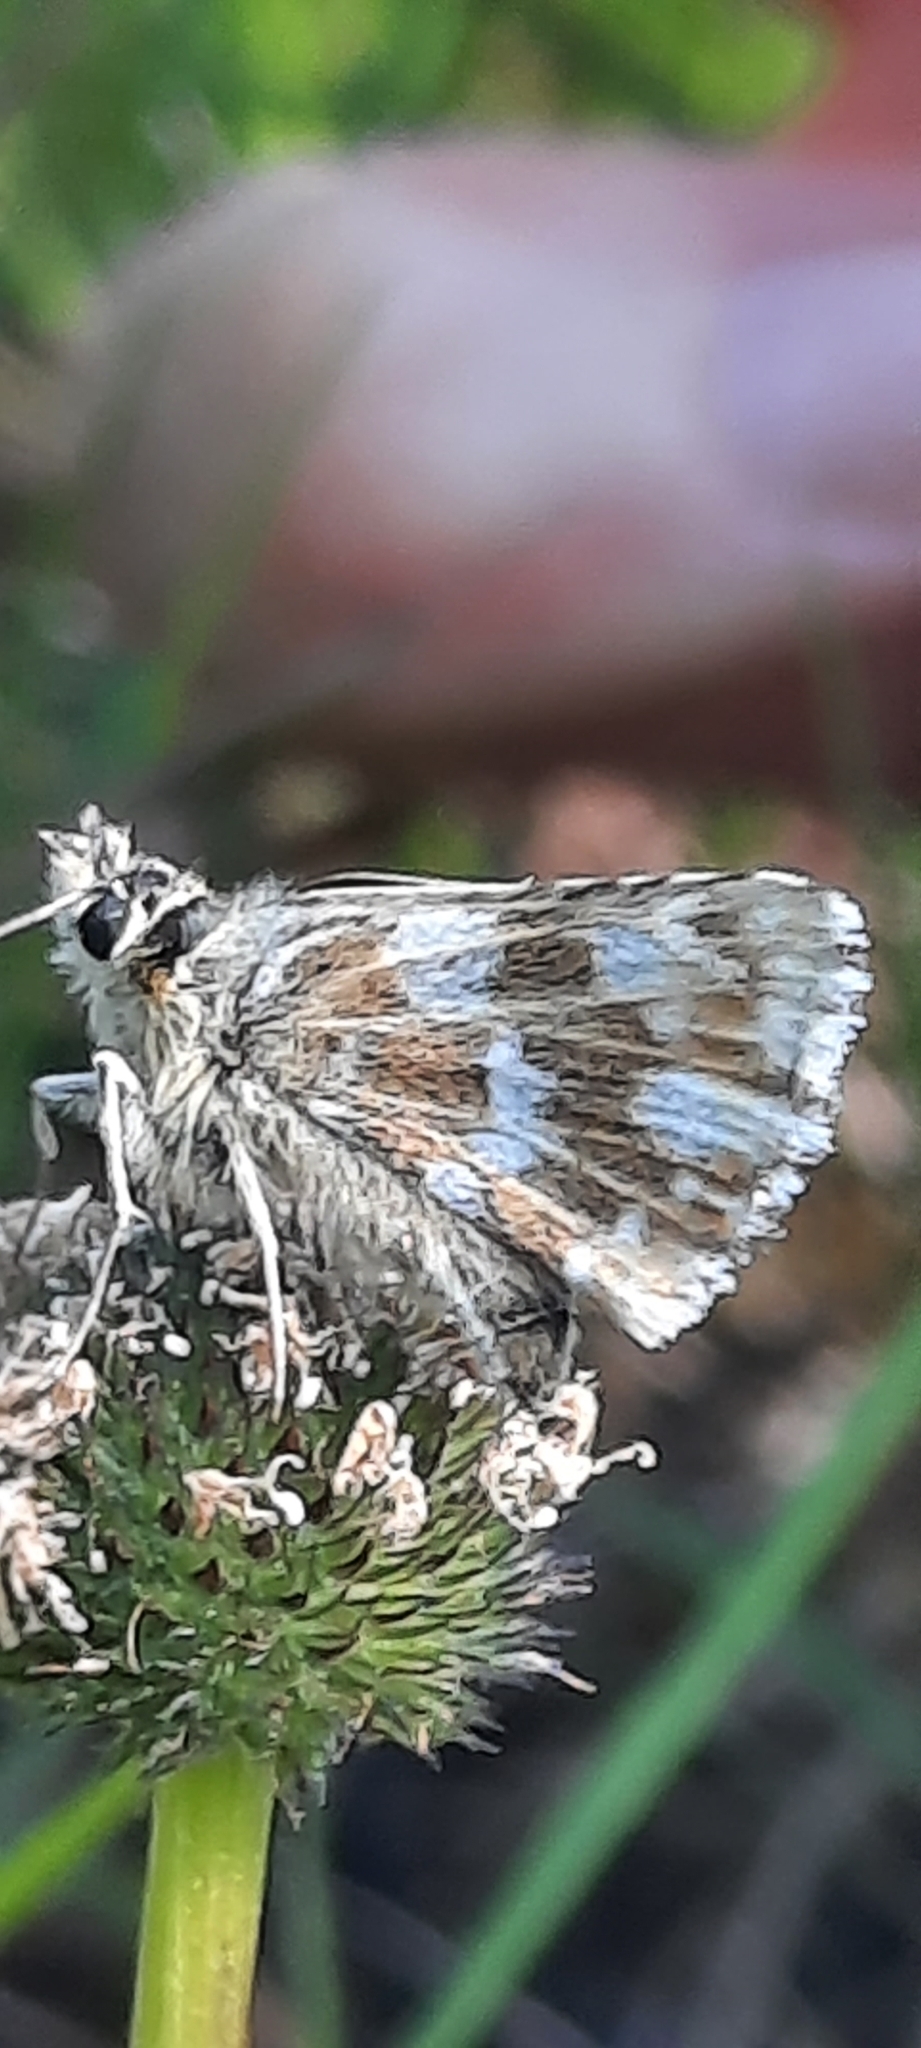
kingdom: Animalia
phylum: Arthropoda
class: Insecta
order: Lepidoptera
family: Hesperiidae
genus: Spialia
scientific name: Spialia sertorius
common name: Red underwing skipper
